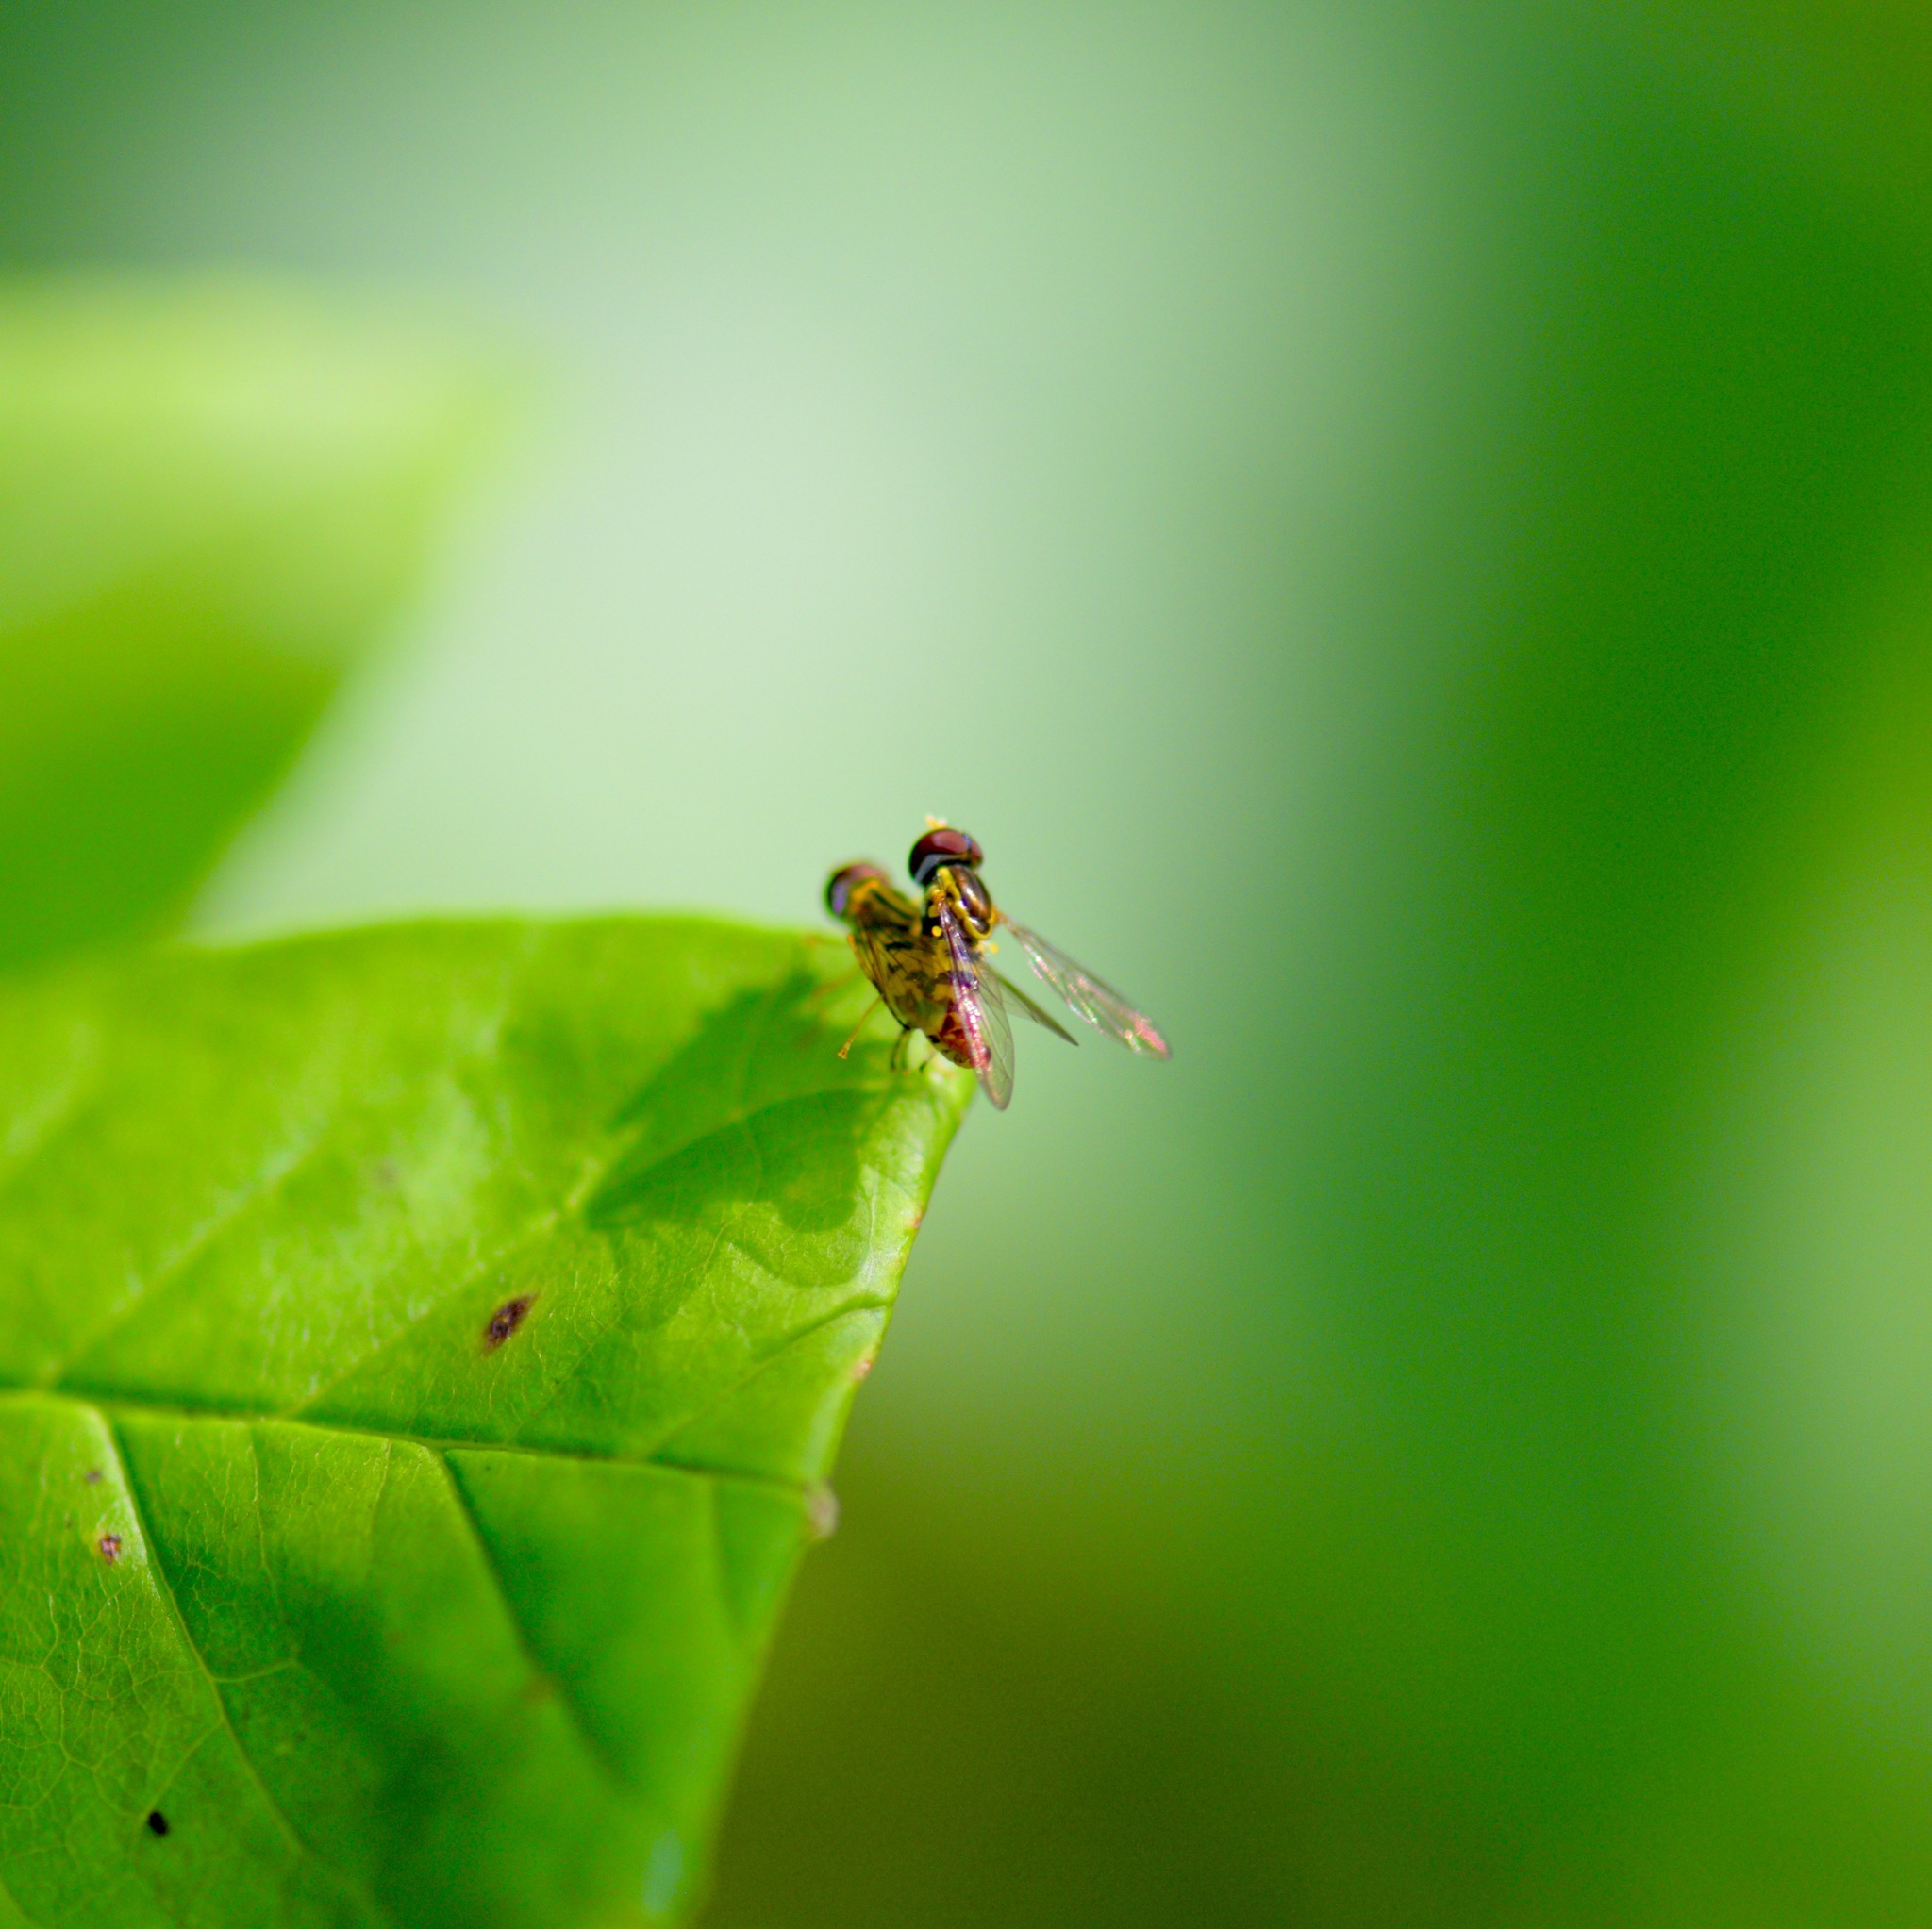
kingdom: Animalia
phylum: Arthropoda
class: Insecta
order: Diptera
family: Syrphidae
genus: Toxomerus
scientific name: Toxomerus geminatus
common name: Eastern calligrapher
